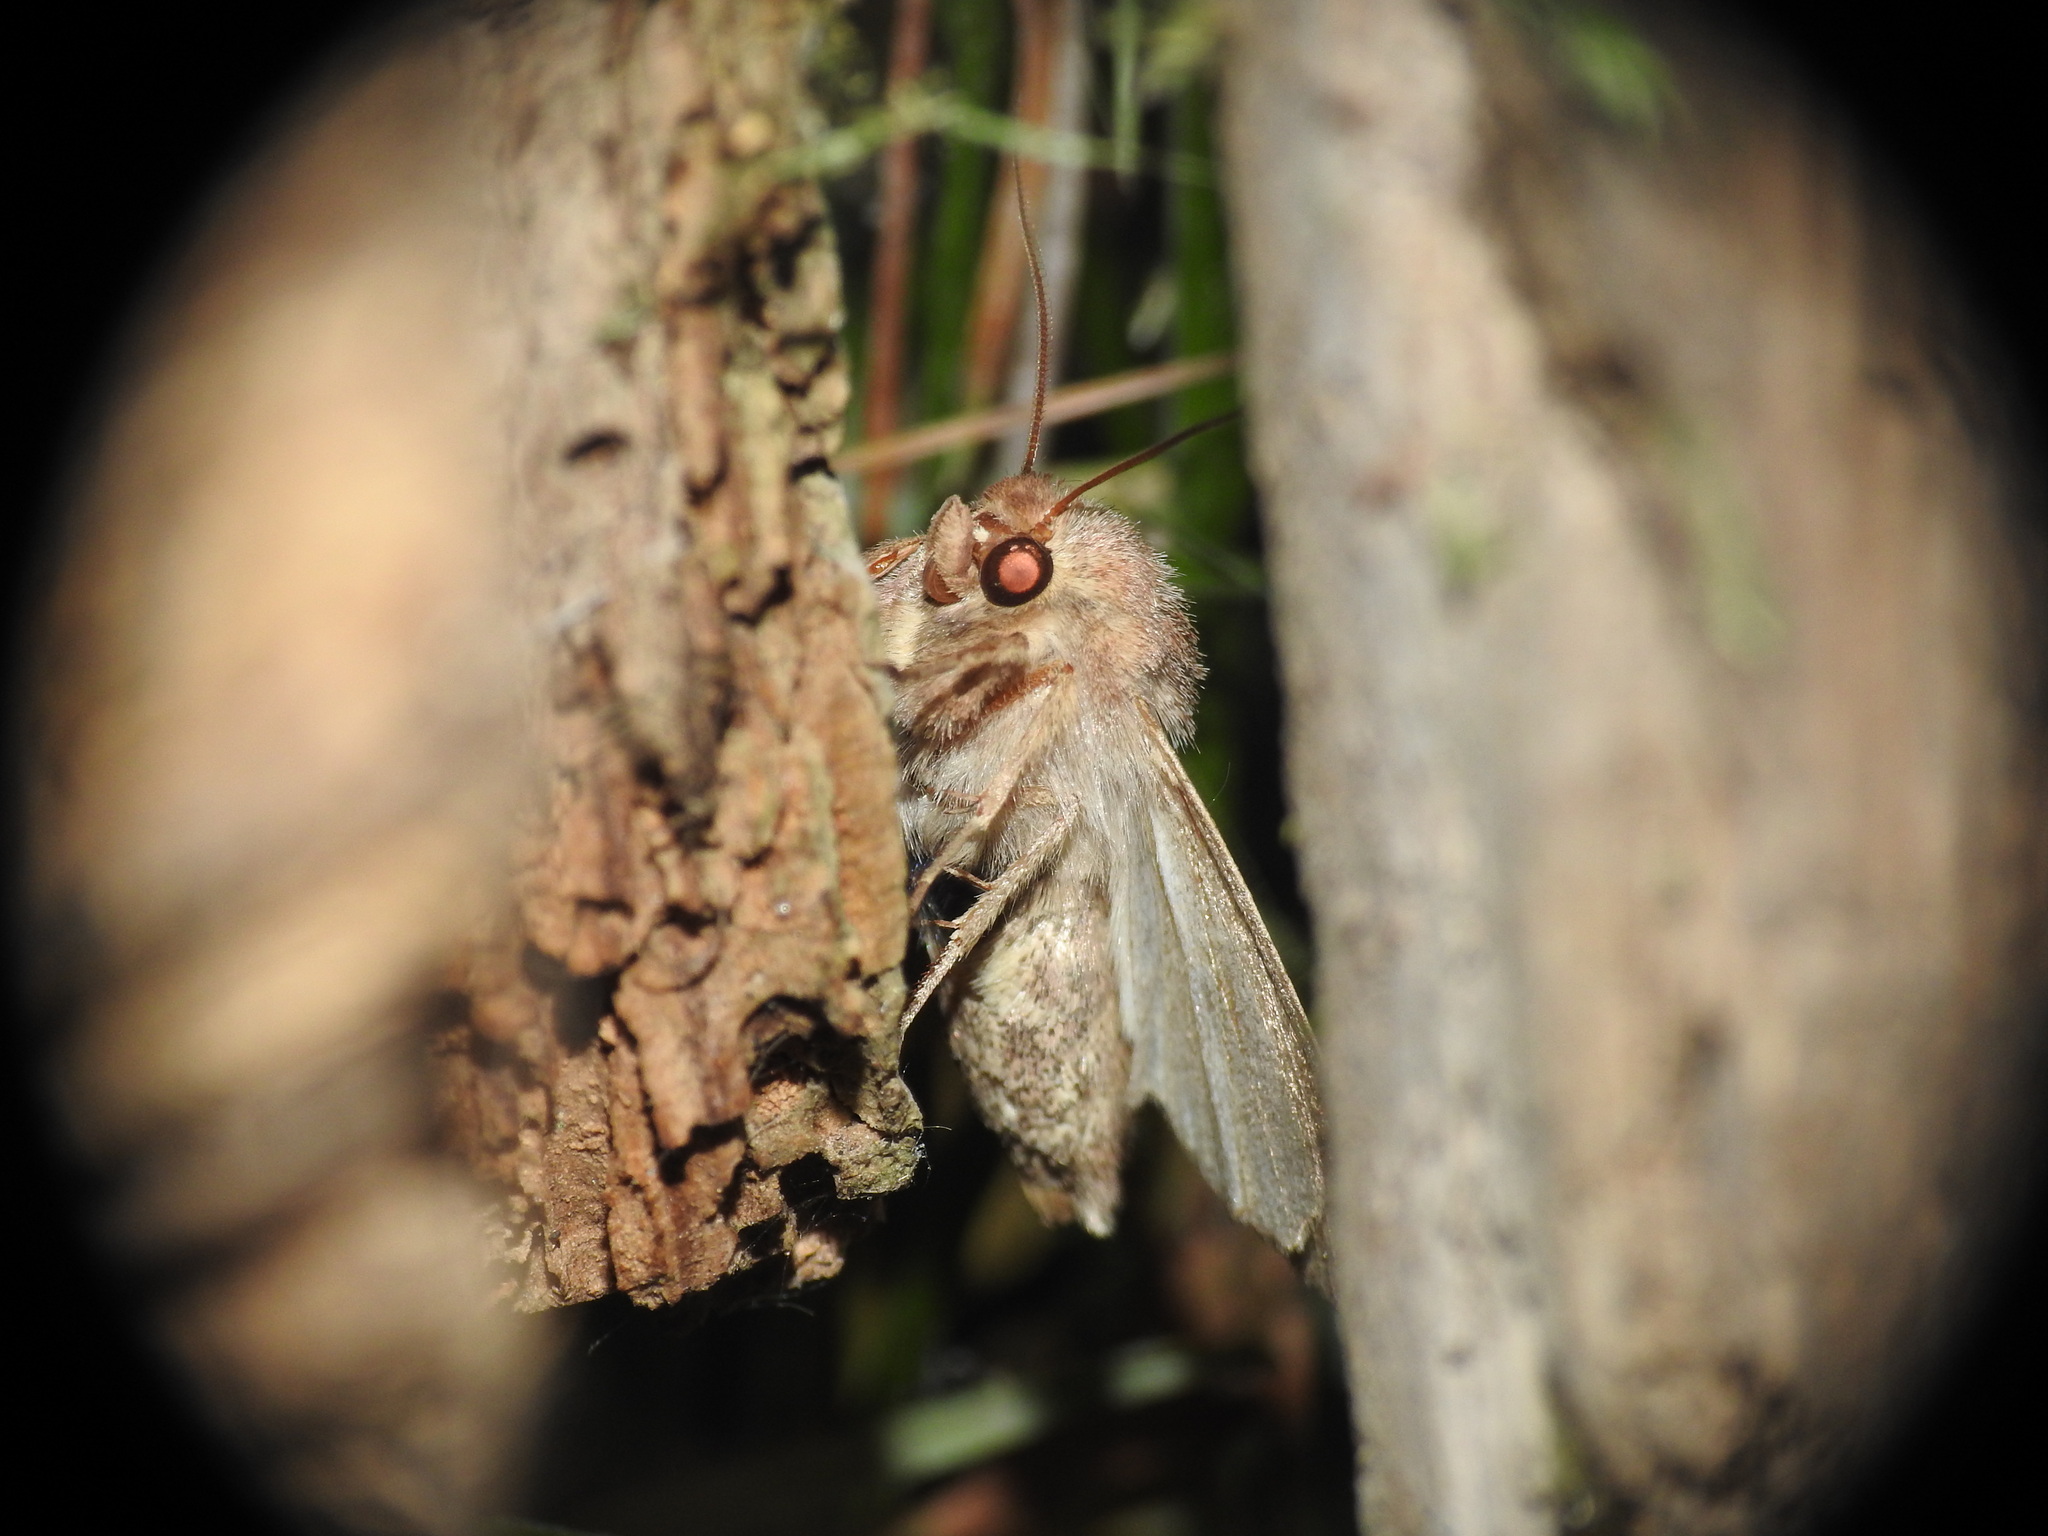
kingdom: Animalia
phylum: Arthropoda
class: Insecta
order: Lepidoptera
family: Noctuidae
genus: Hecatera
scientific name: Hecatera dysodea
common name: Small ranunculus
